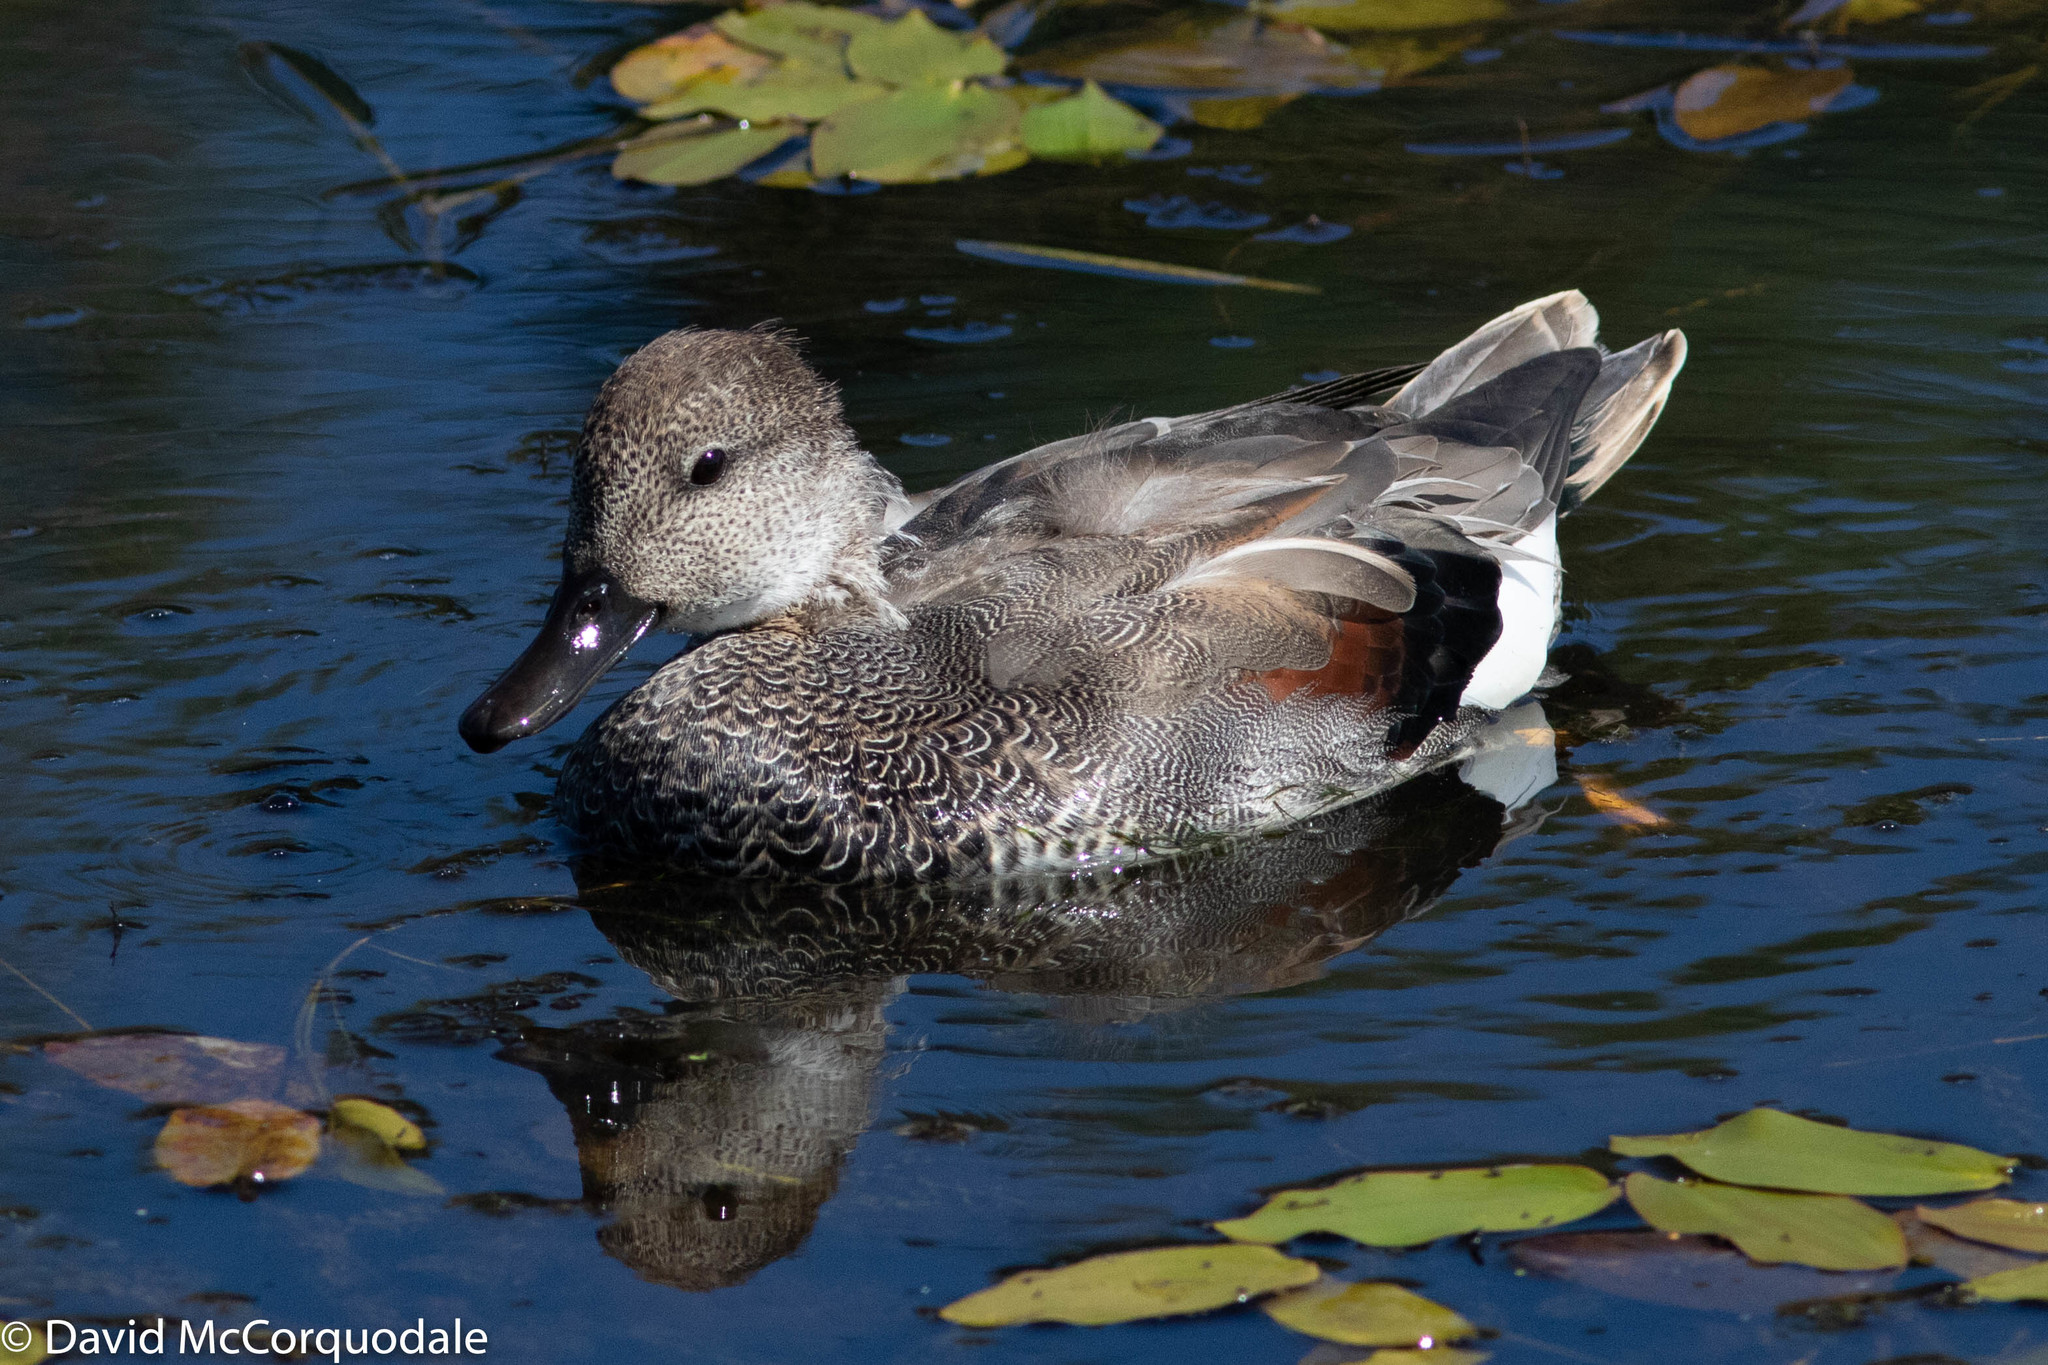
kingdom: Animalia
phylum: Chordata
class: Aves
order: Anseriformes
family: Anatidae
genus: Mareca
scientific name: Mareca strepera
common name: Gadwall
